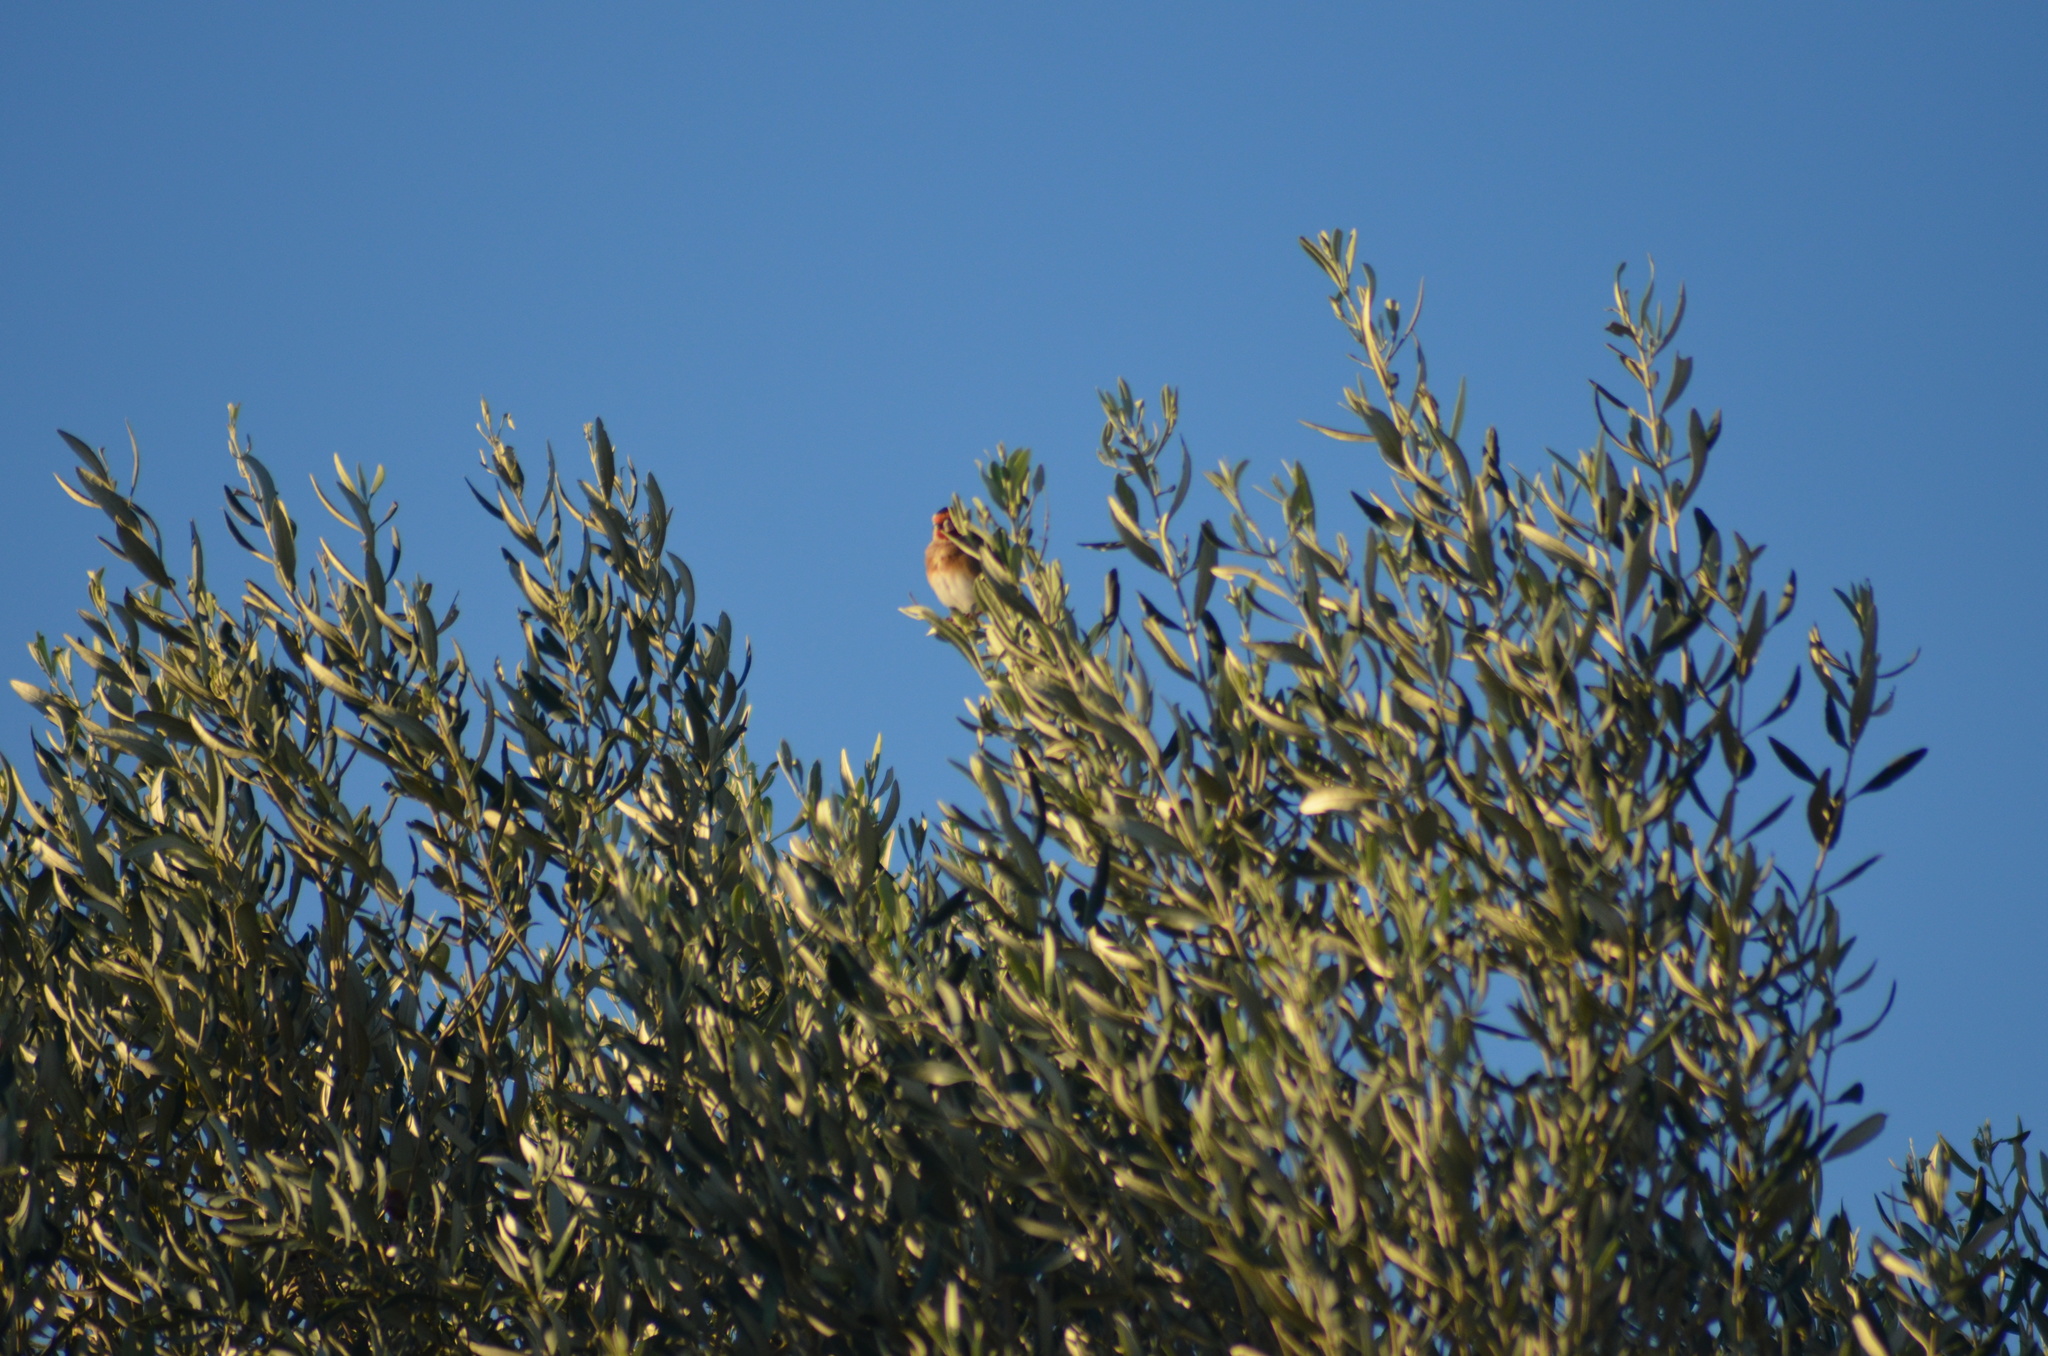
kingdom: Animalia
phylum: Chordata
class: Aves
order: Passeriformes
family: Fringillidae
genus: Carduelis
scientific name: Carduelis carduelis
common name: European goldfinch
